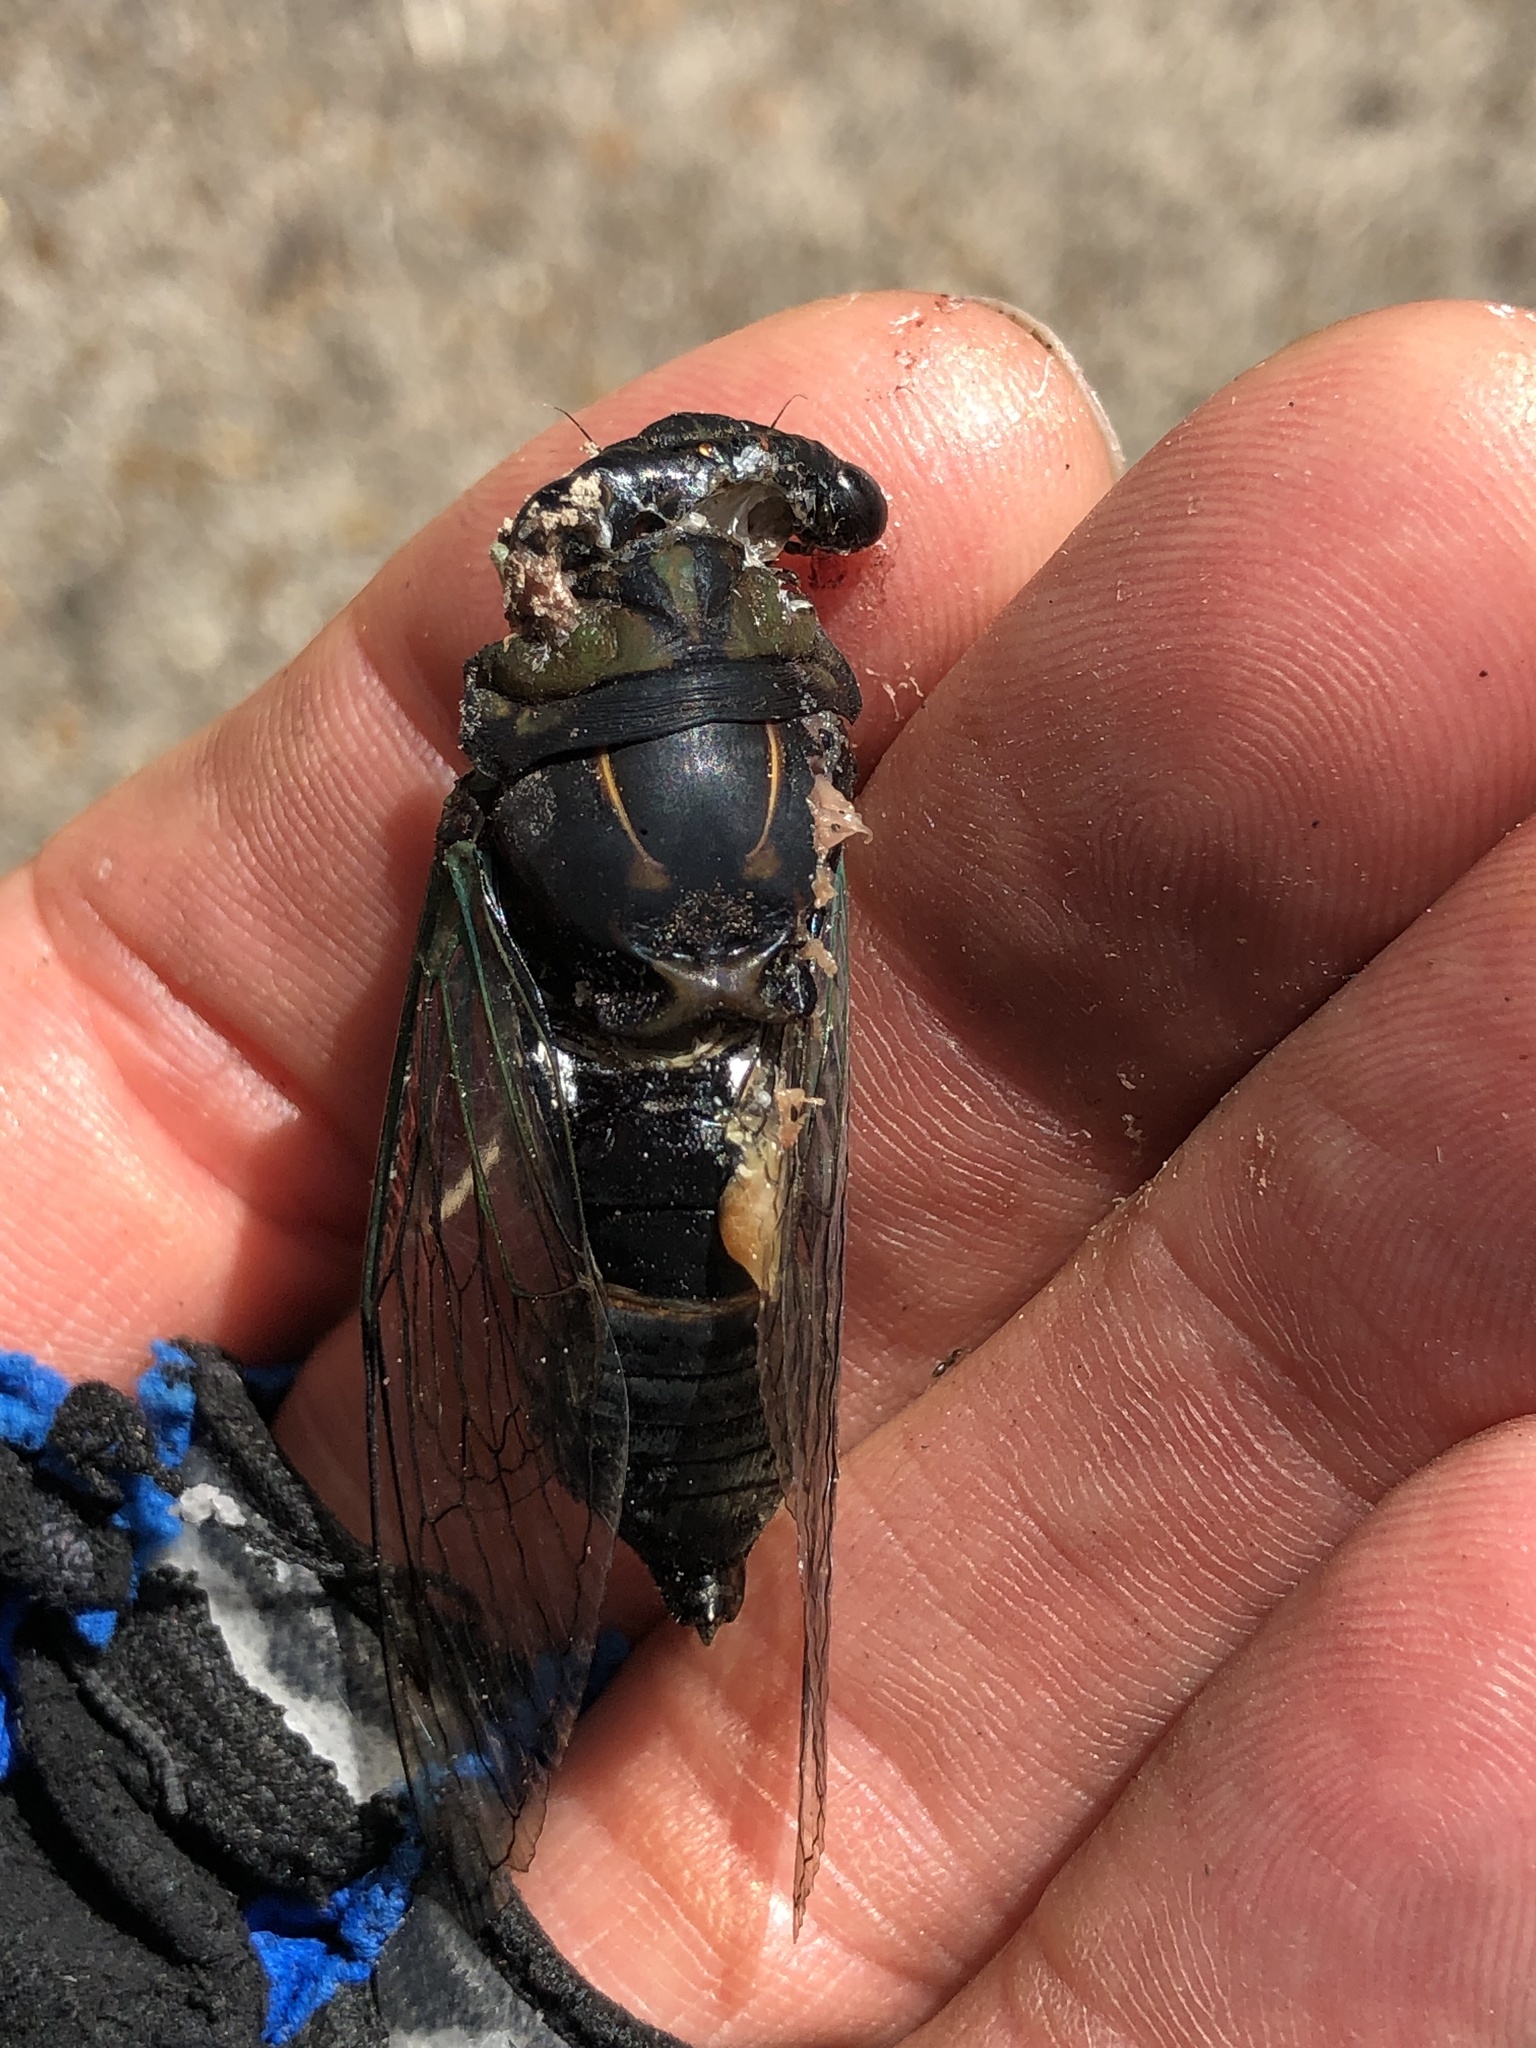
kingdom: Animalia
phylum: Arthropoda
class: Insecta
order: Hemiptera
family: Cicadidae
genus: Neotibicen
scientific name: Neotibicen tibicen
